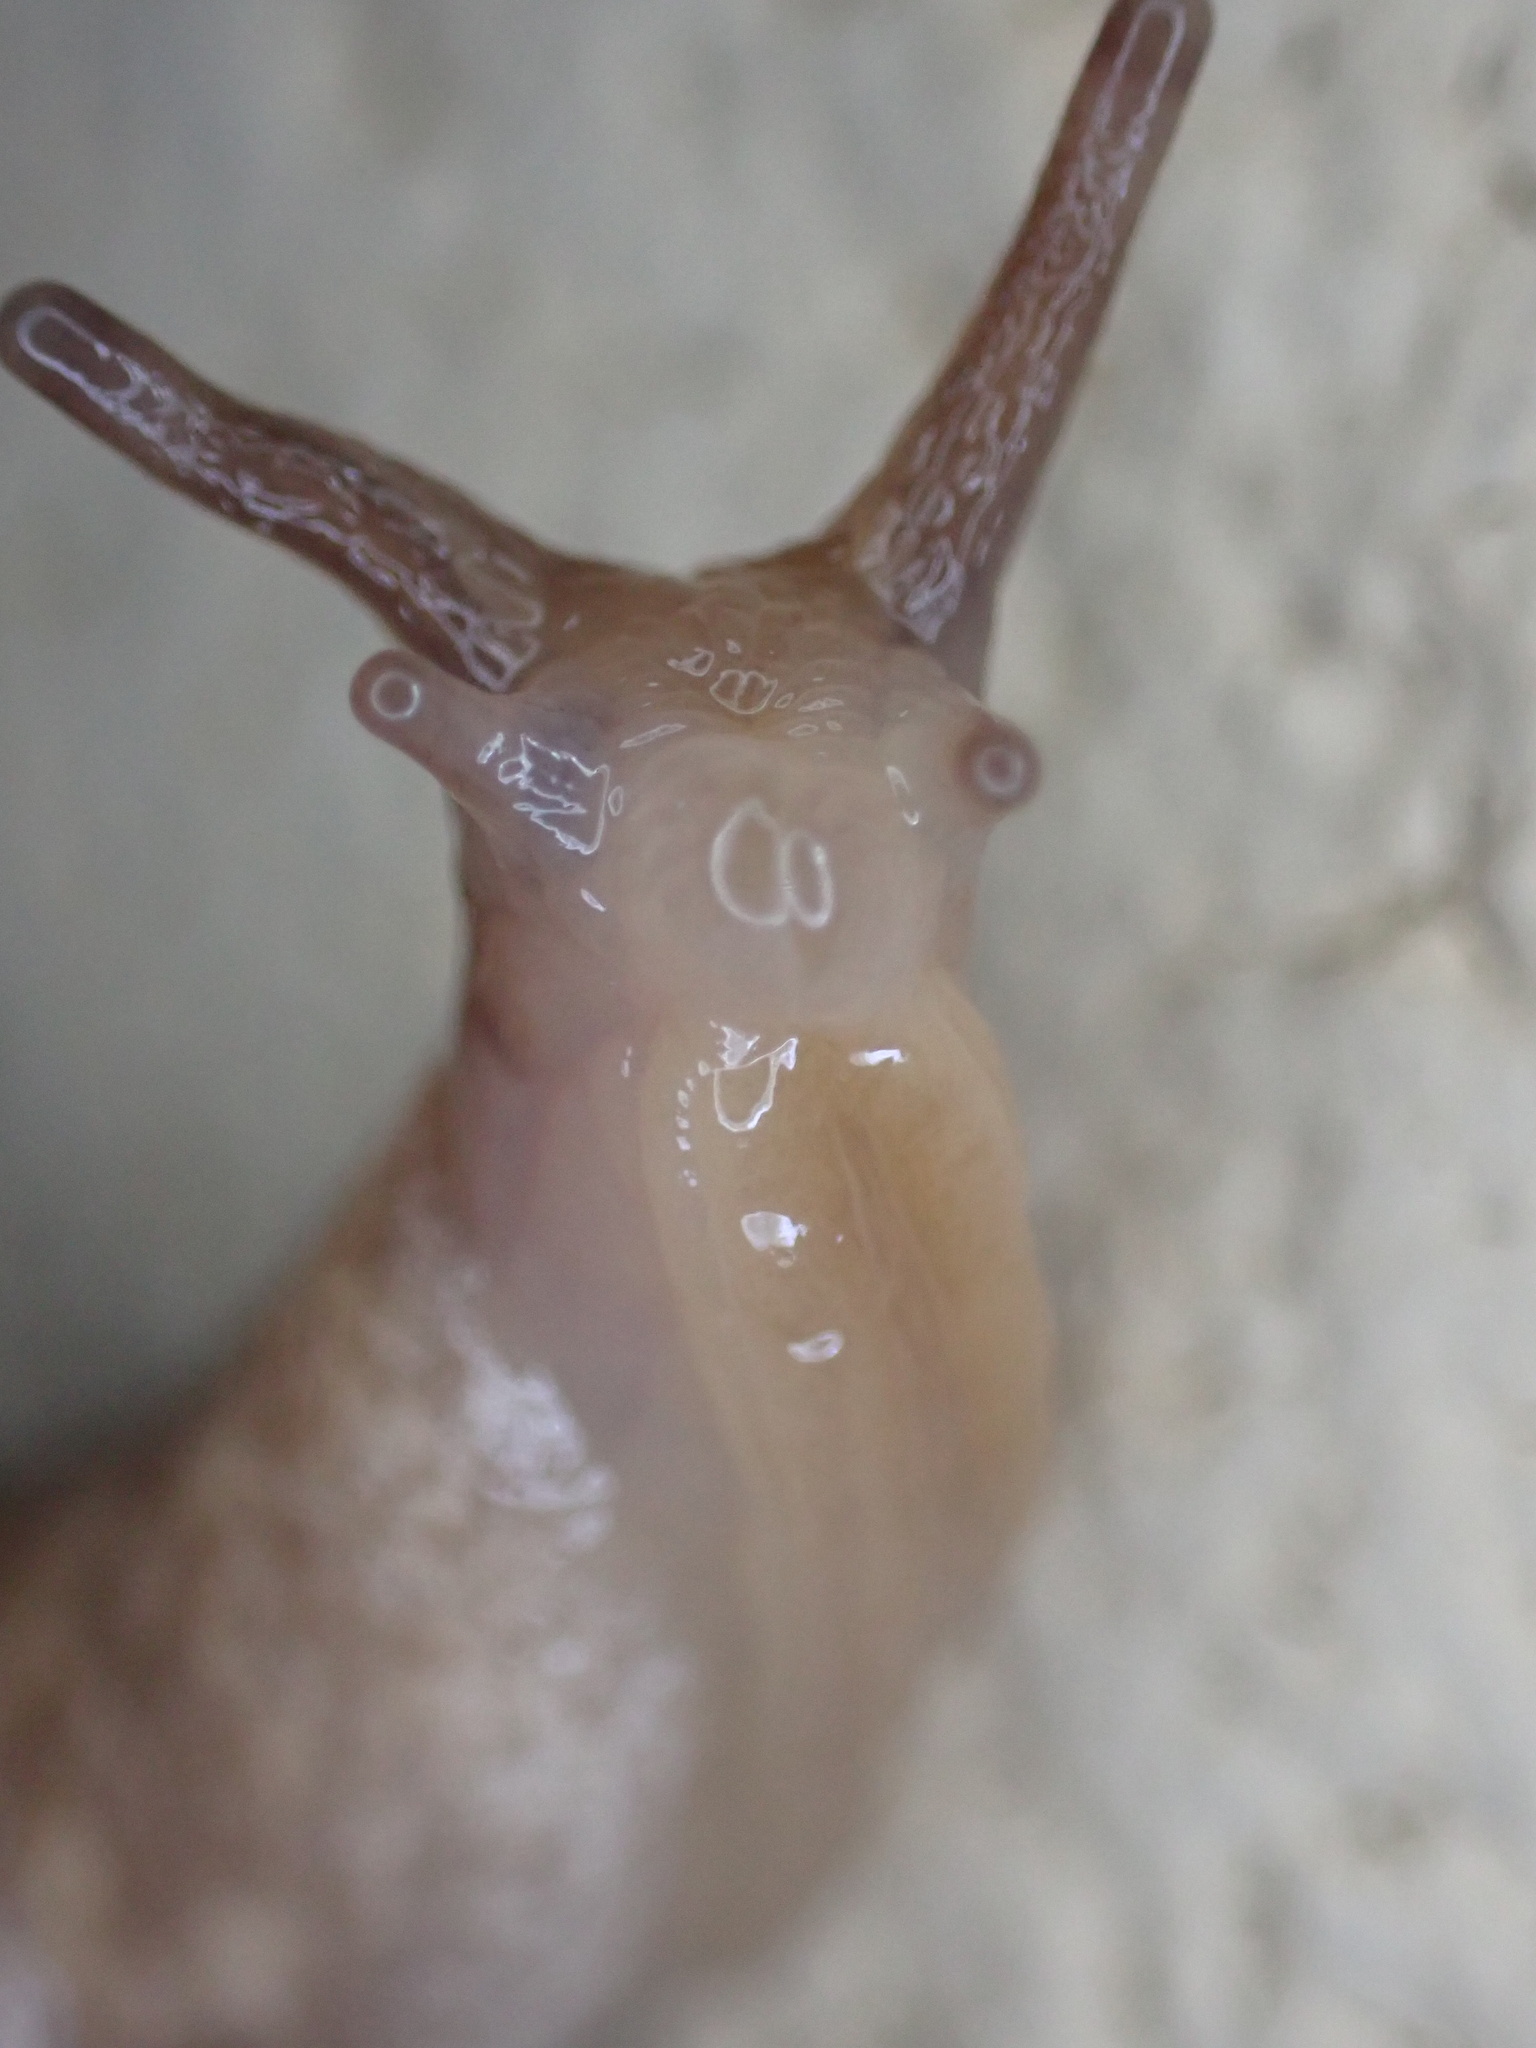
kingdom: Animalia
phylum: Mollusca
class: Gastropoda
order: Stylommatophora
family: Agriolimacidae
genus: Deroceras
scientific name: Deroceras reticulatum
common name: Gray field slug
